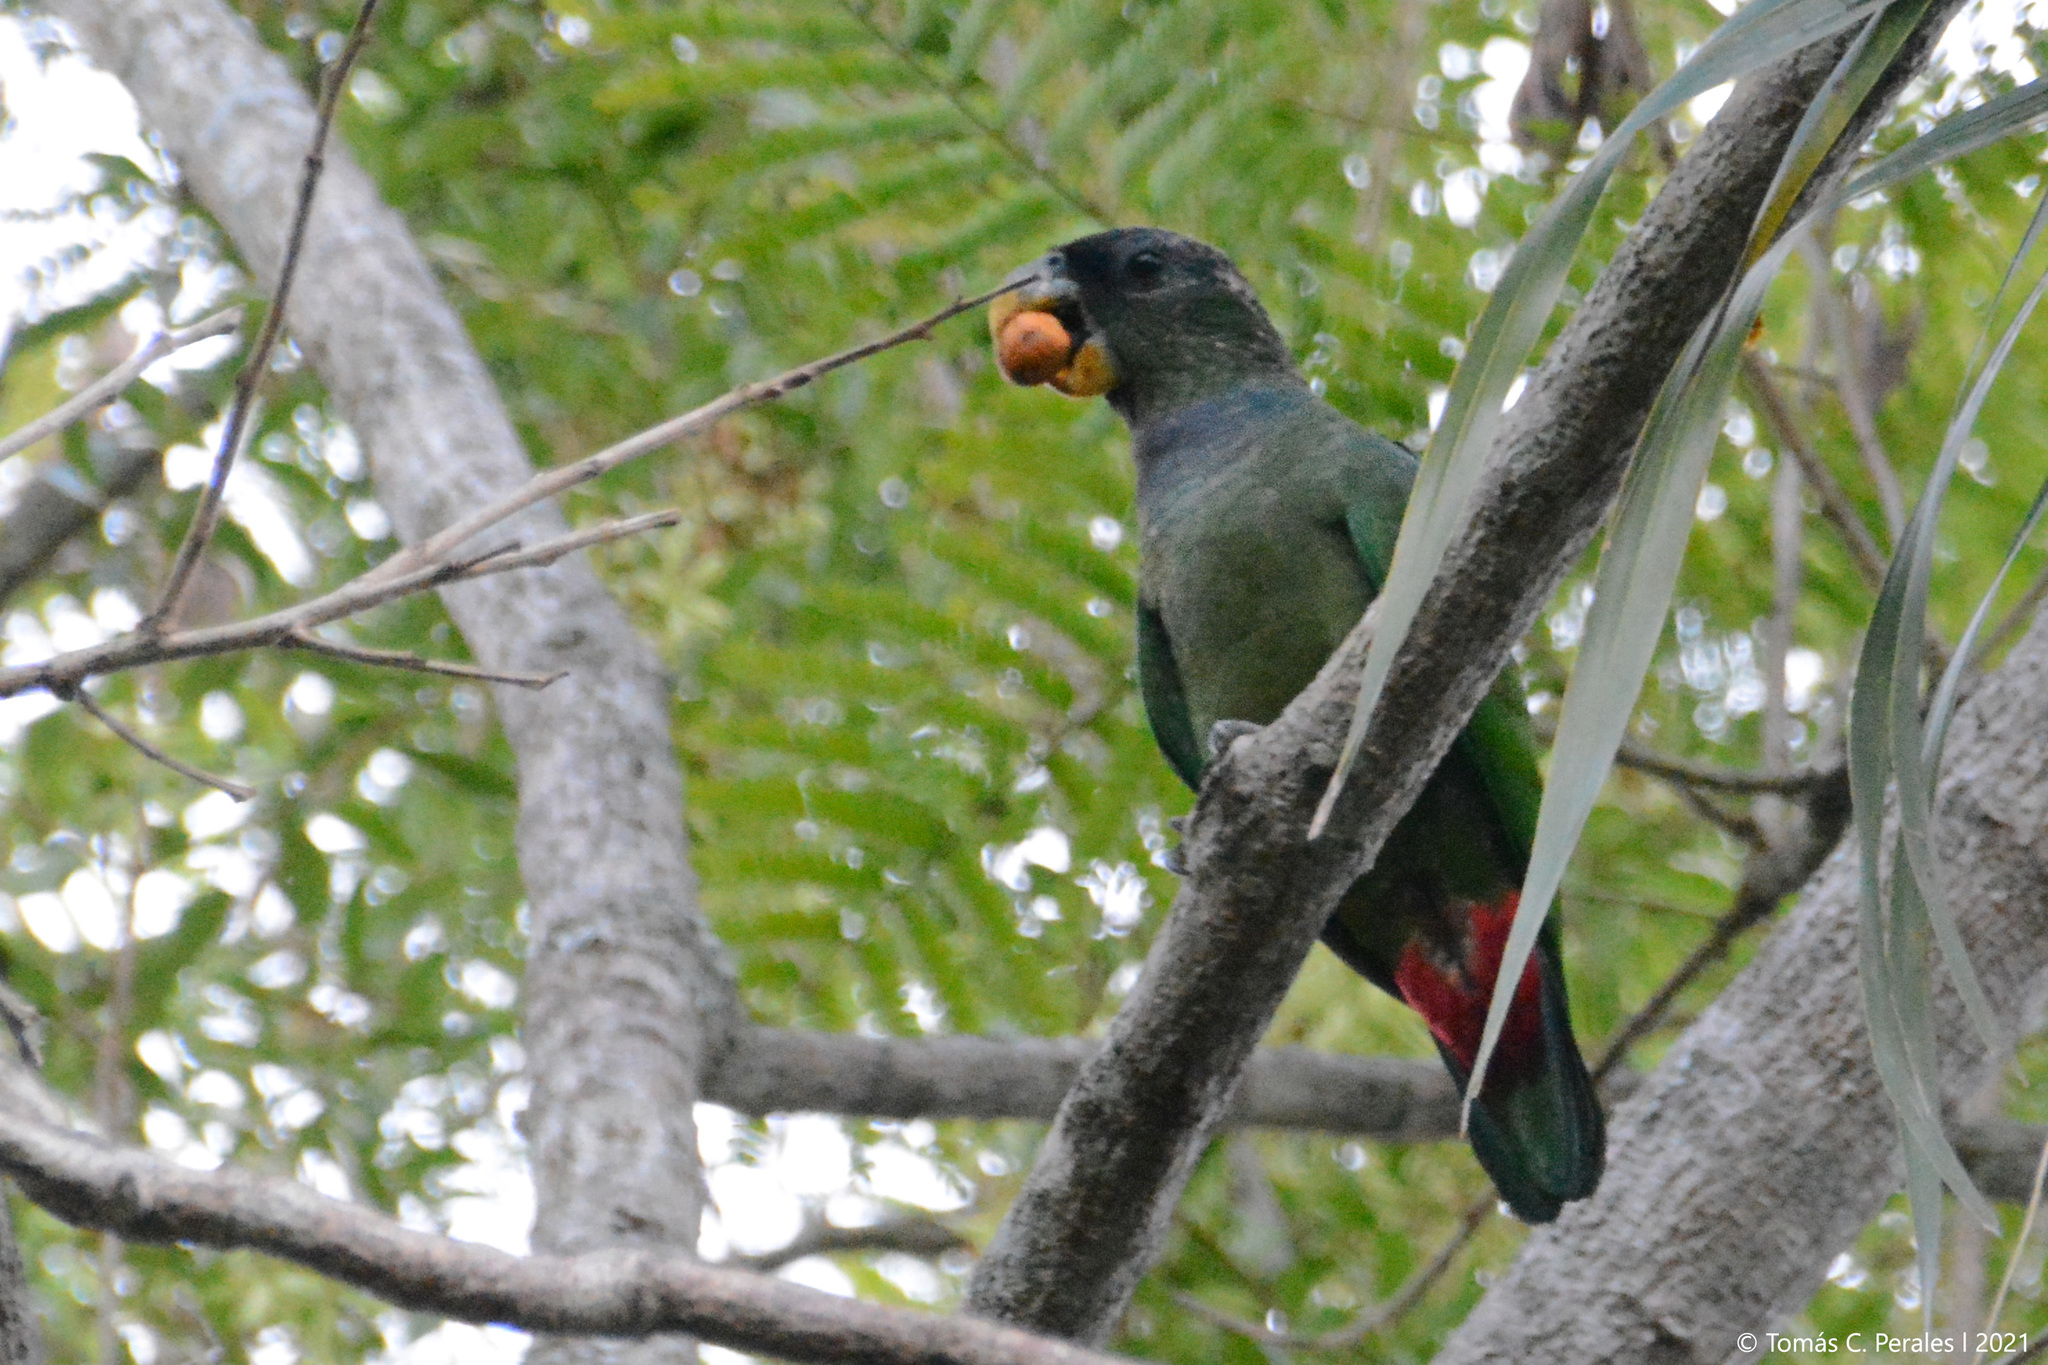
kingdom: Animalia
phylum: Chordata
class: Aves
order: Psittaciformes
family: Psittacidae
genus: Pionus
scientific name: Pionus maximiliani
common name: Scaly-headed parrot
